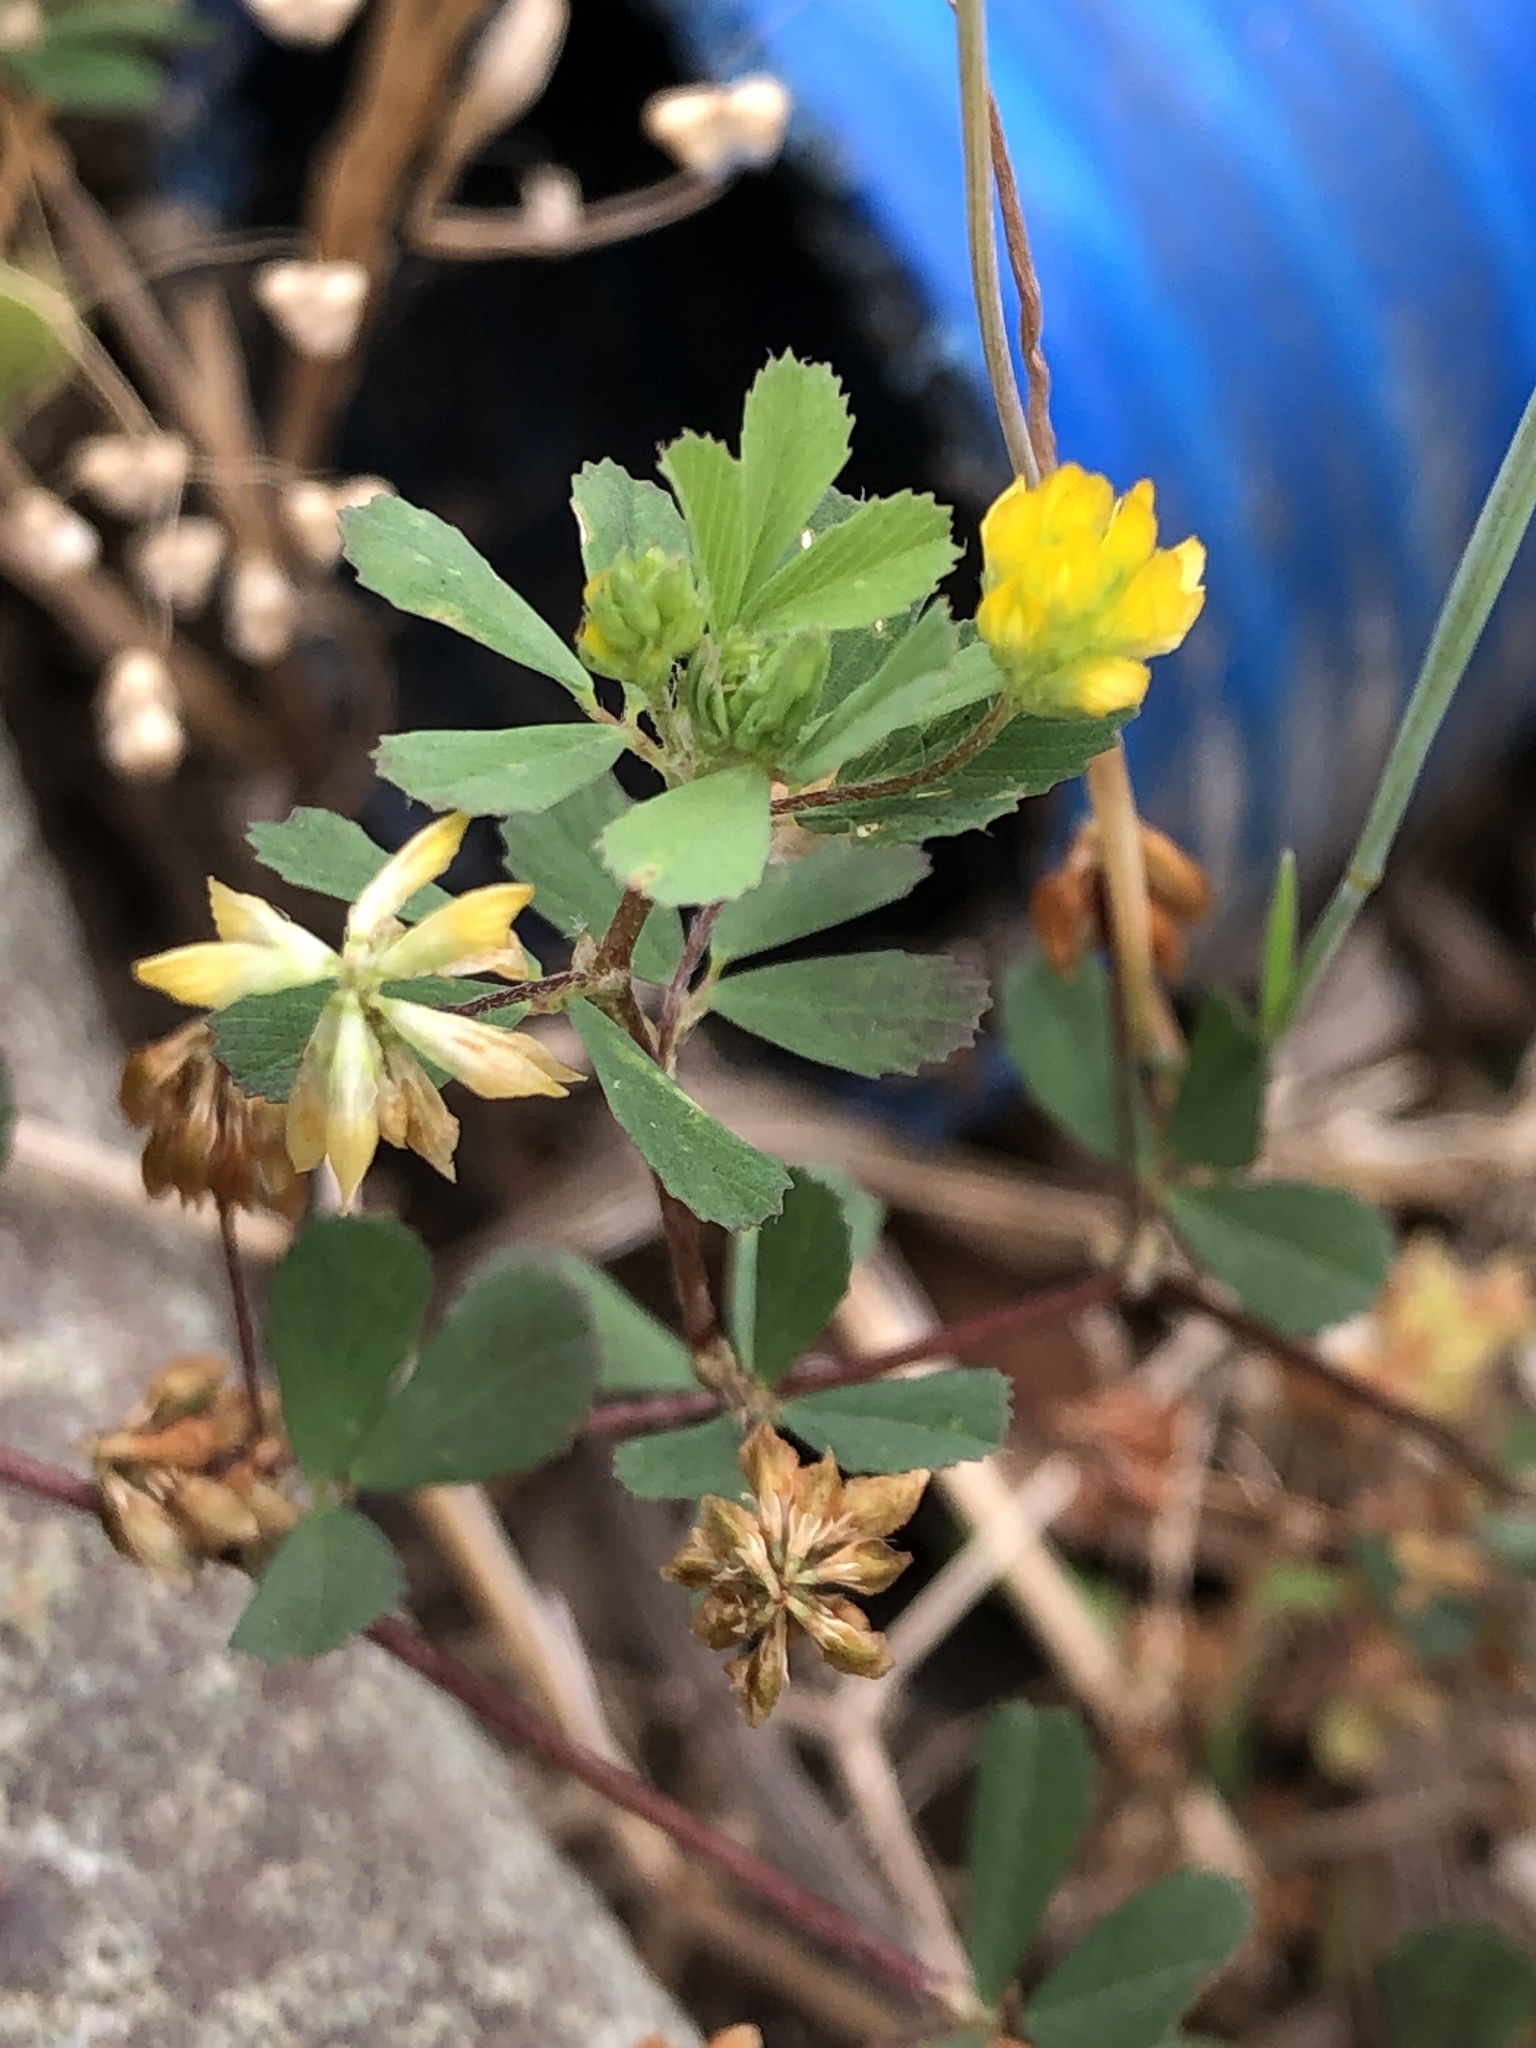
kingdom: Plantae
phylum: Tracheophyta
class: Magnoliopsida
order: Fabales
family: Fabaceae
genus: Trifolium
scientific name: Trifolium dubium
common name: Suckling clover
